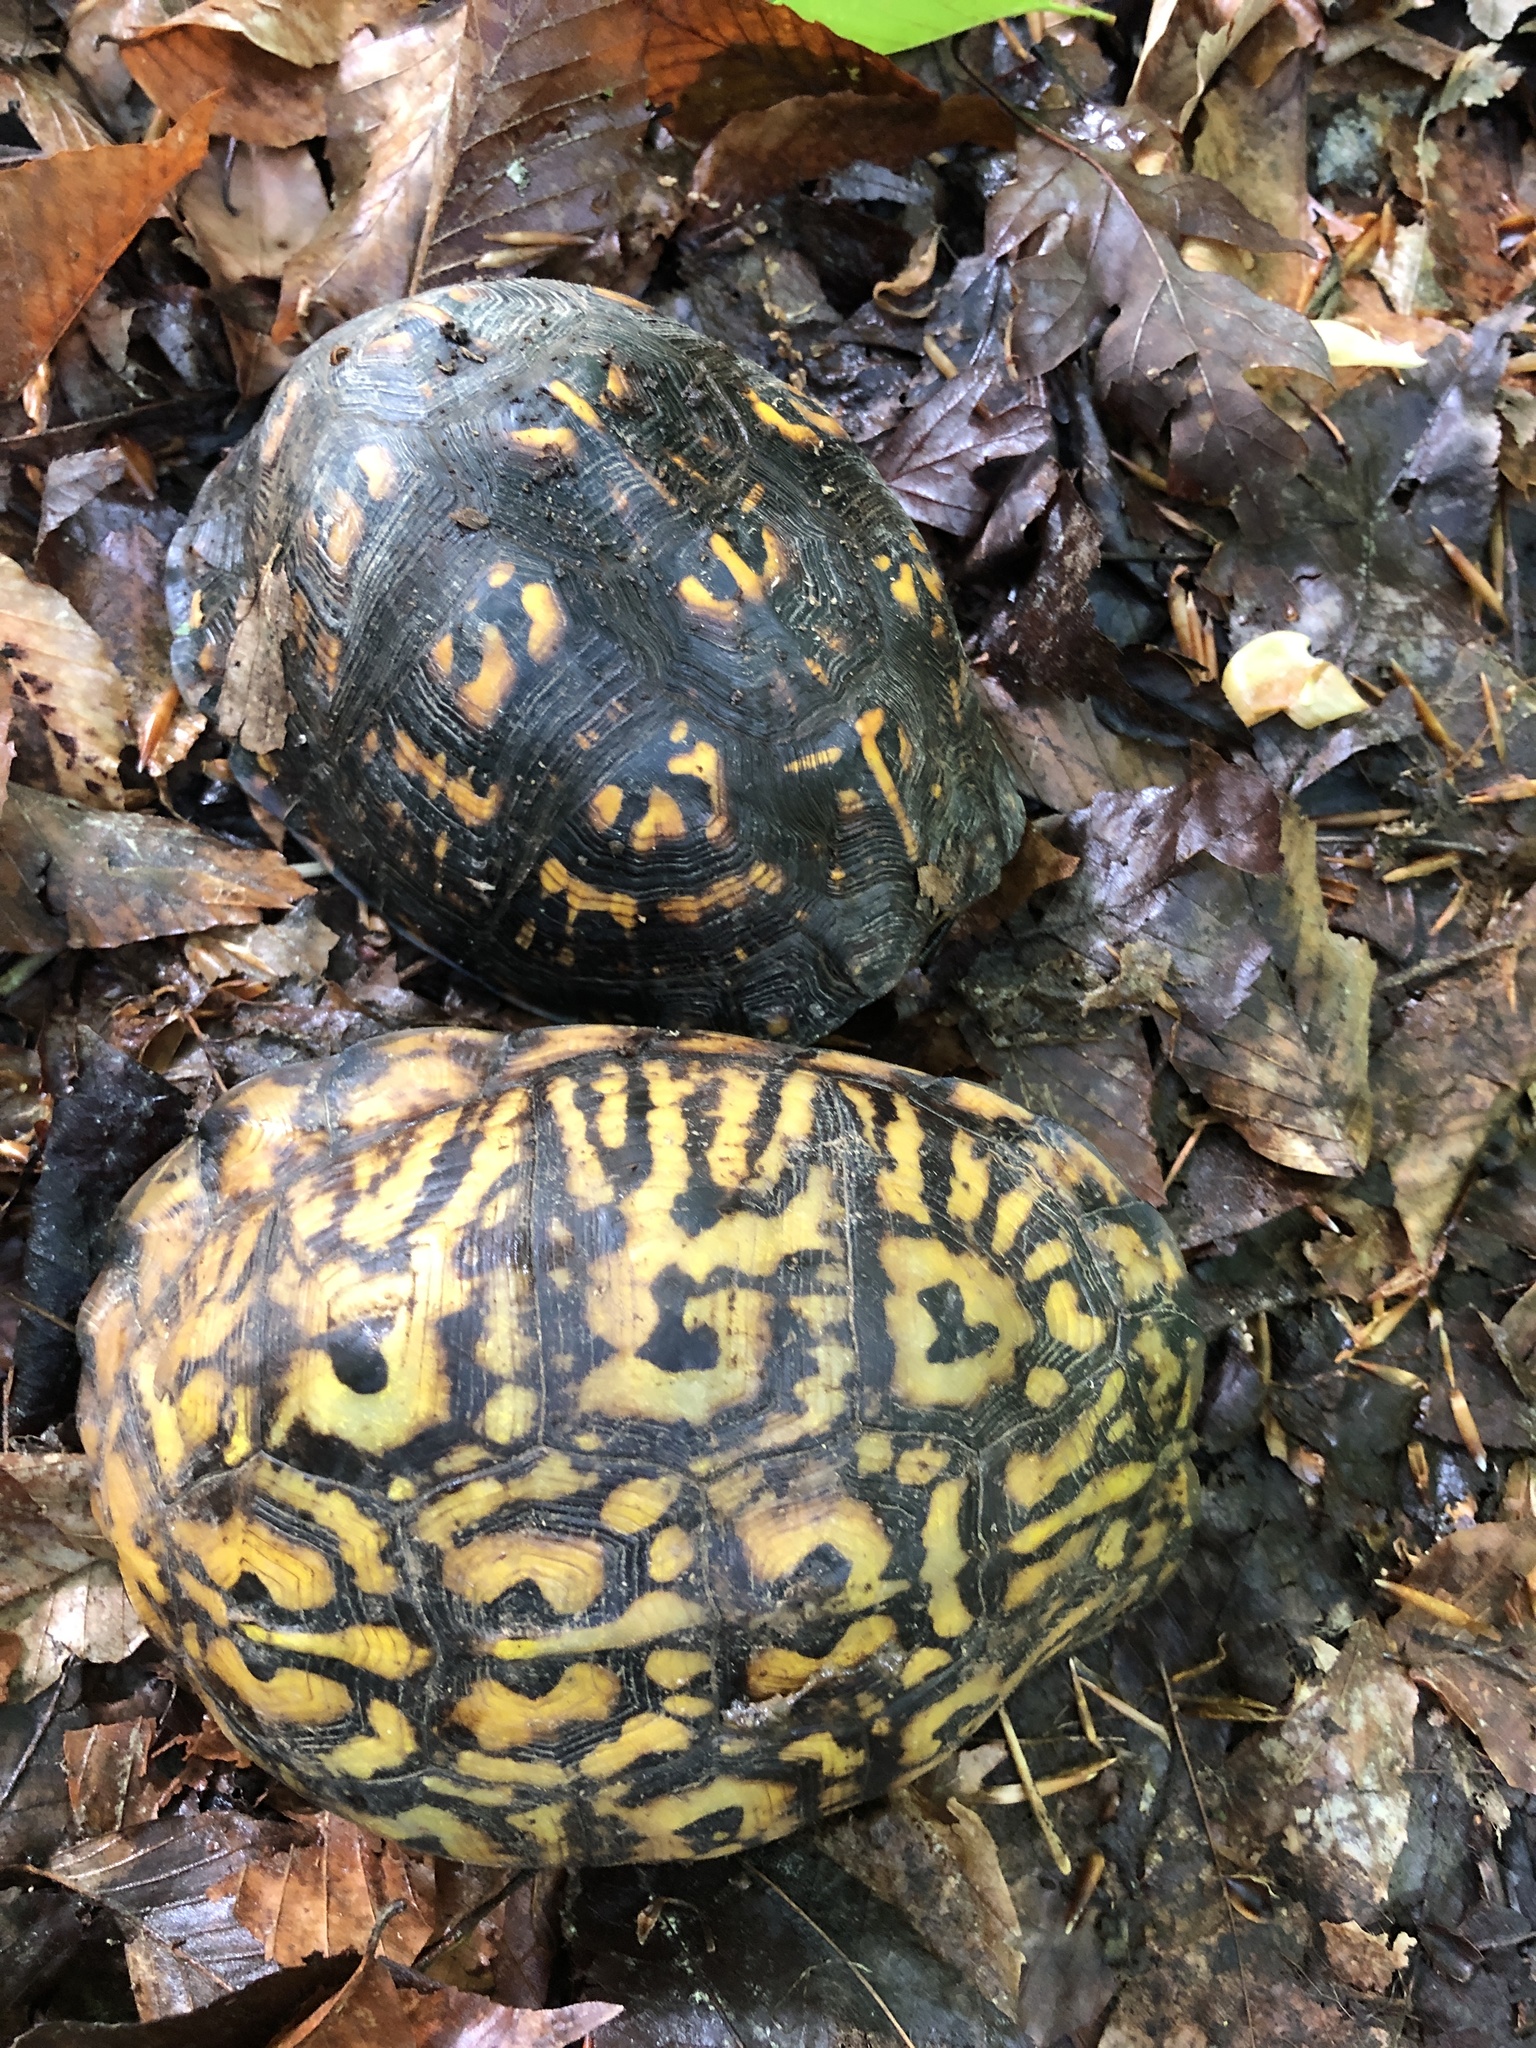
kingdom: Animalia
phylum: Chordata
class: Testudines
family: Emydidae
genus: Terrapene
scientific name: Terrapene carolina
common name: Common box turtle
